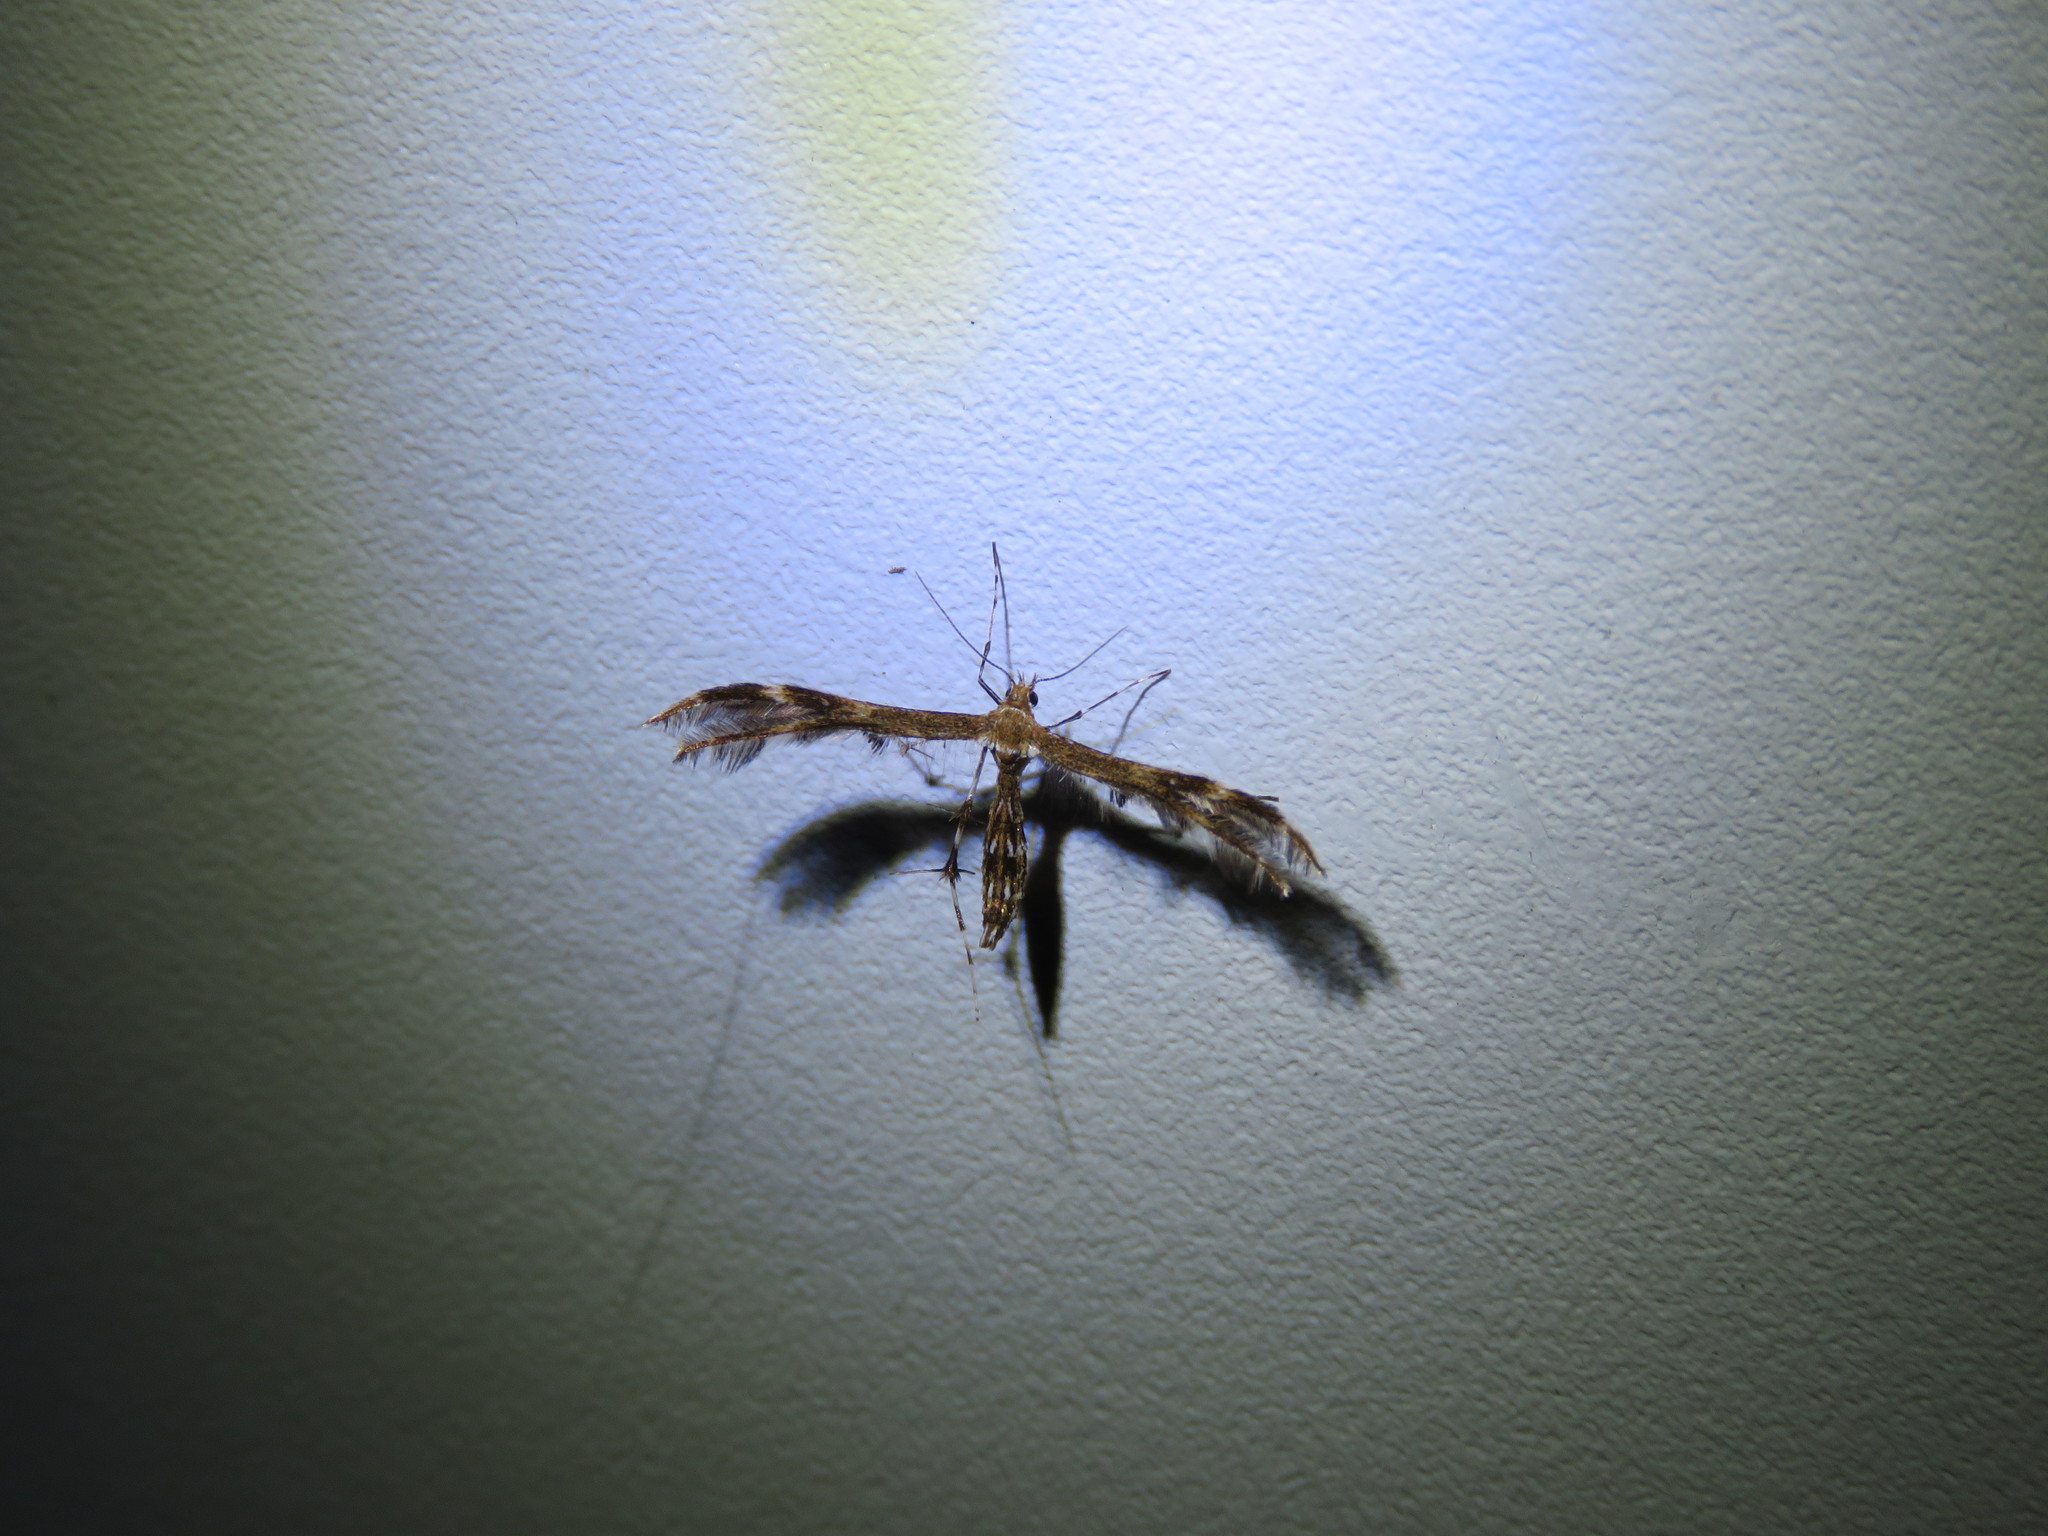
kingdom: Animalia
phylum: Arthropoda
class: Insecta
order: Lepidoptera
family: Pterophoridae
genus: Dejongia
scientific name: Dejongia lobidactylus
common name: Lobed plume moth
